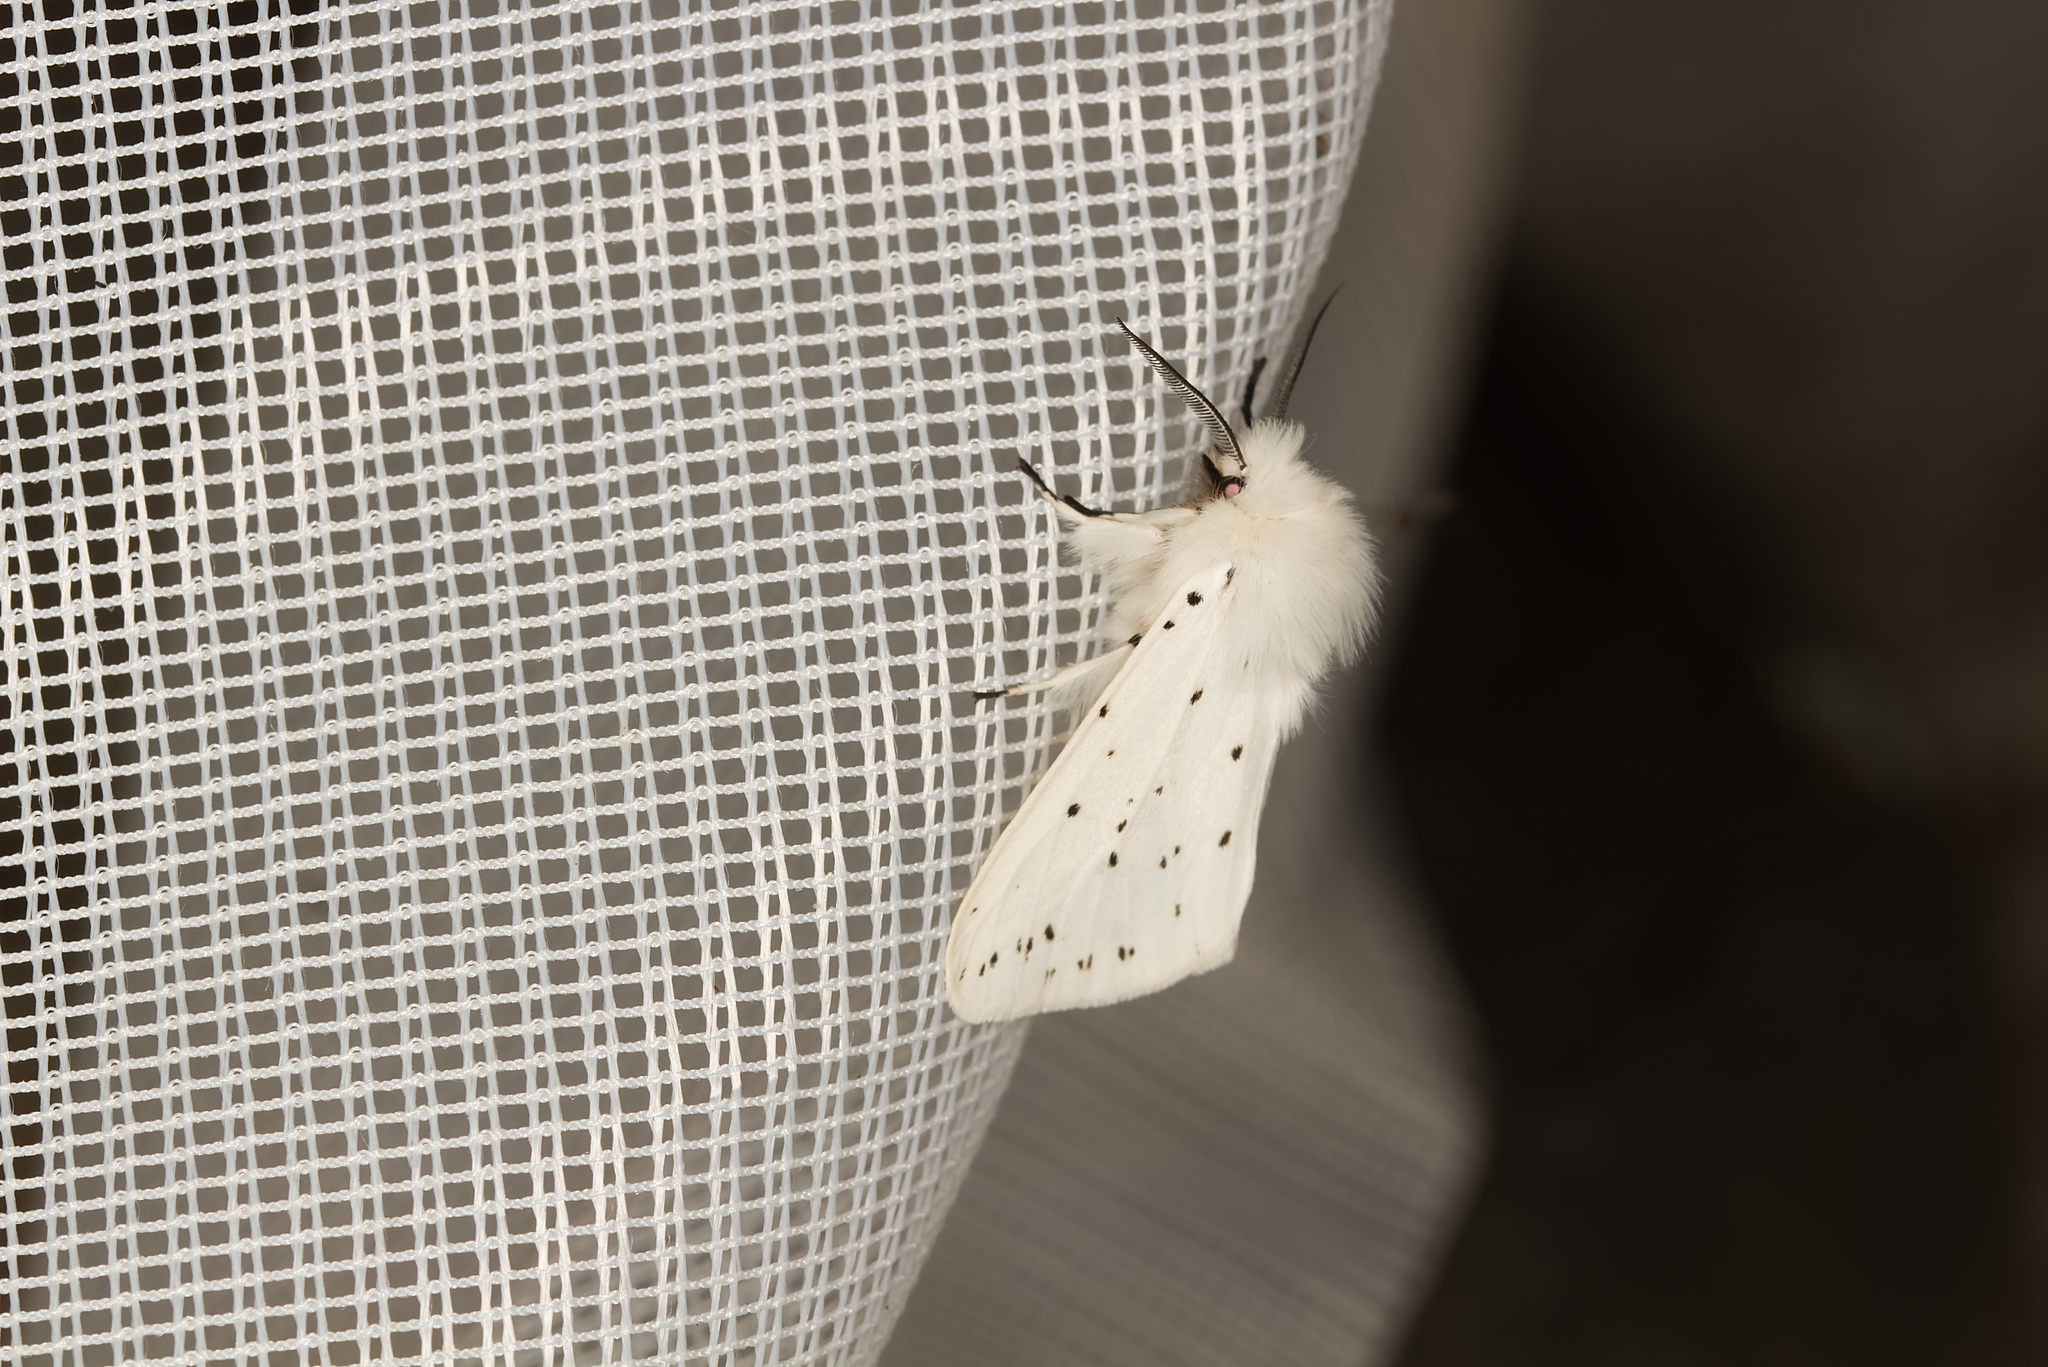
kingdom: Animalia
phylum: Arthropoda
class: Insecta
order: Lepidoptera
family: Erebidae
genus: Spilosoma
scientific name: Spilosoma lubricipeda
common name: White ermine
